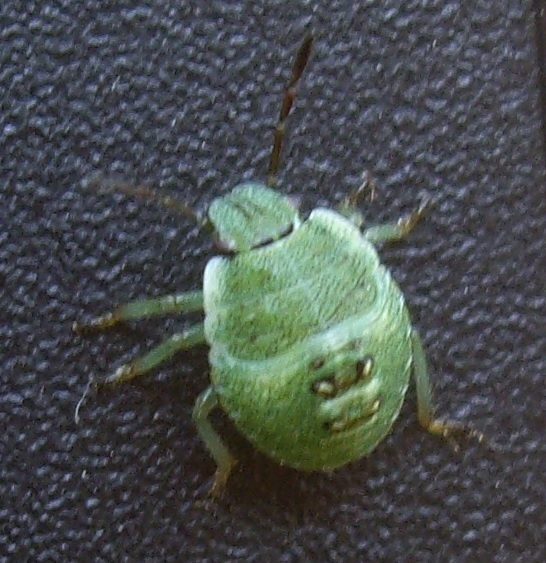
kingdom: Animalia
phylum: Arthropoda
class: Insecta
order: Hemiptera
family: Pentatomidae
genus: Palomena
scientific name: Palomena prasina
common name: Green shieldbug
